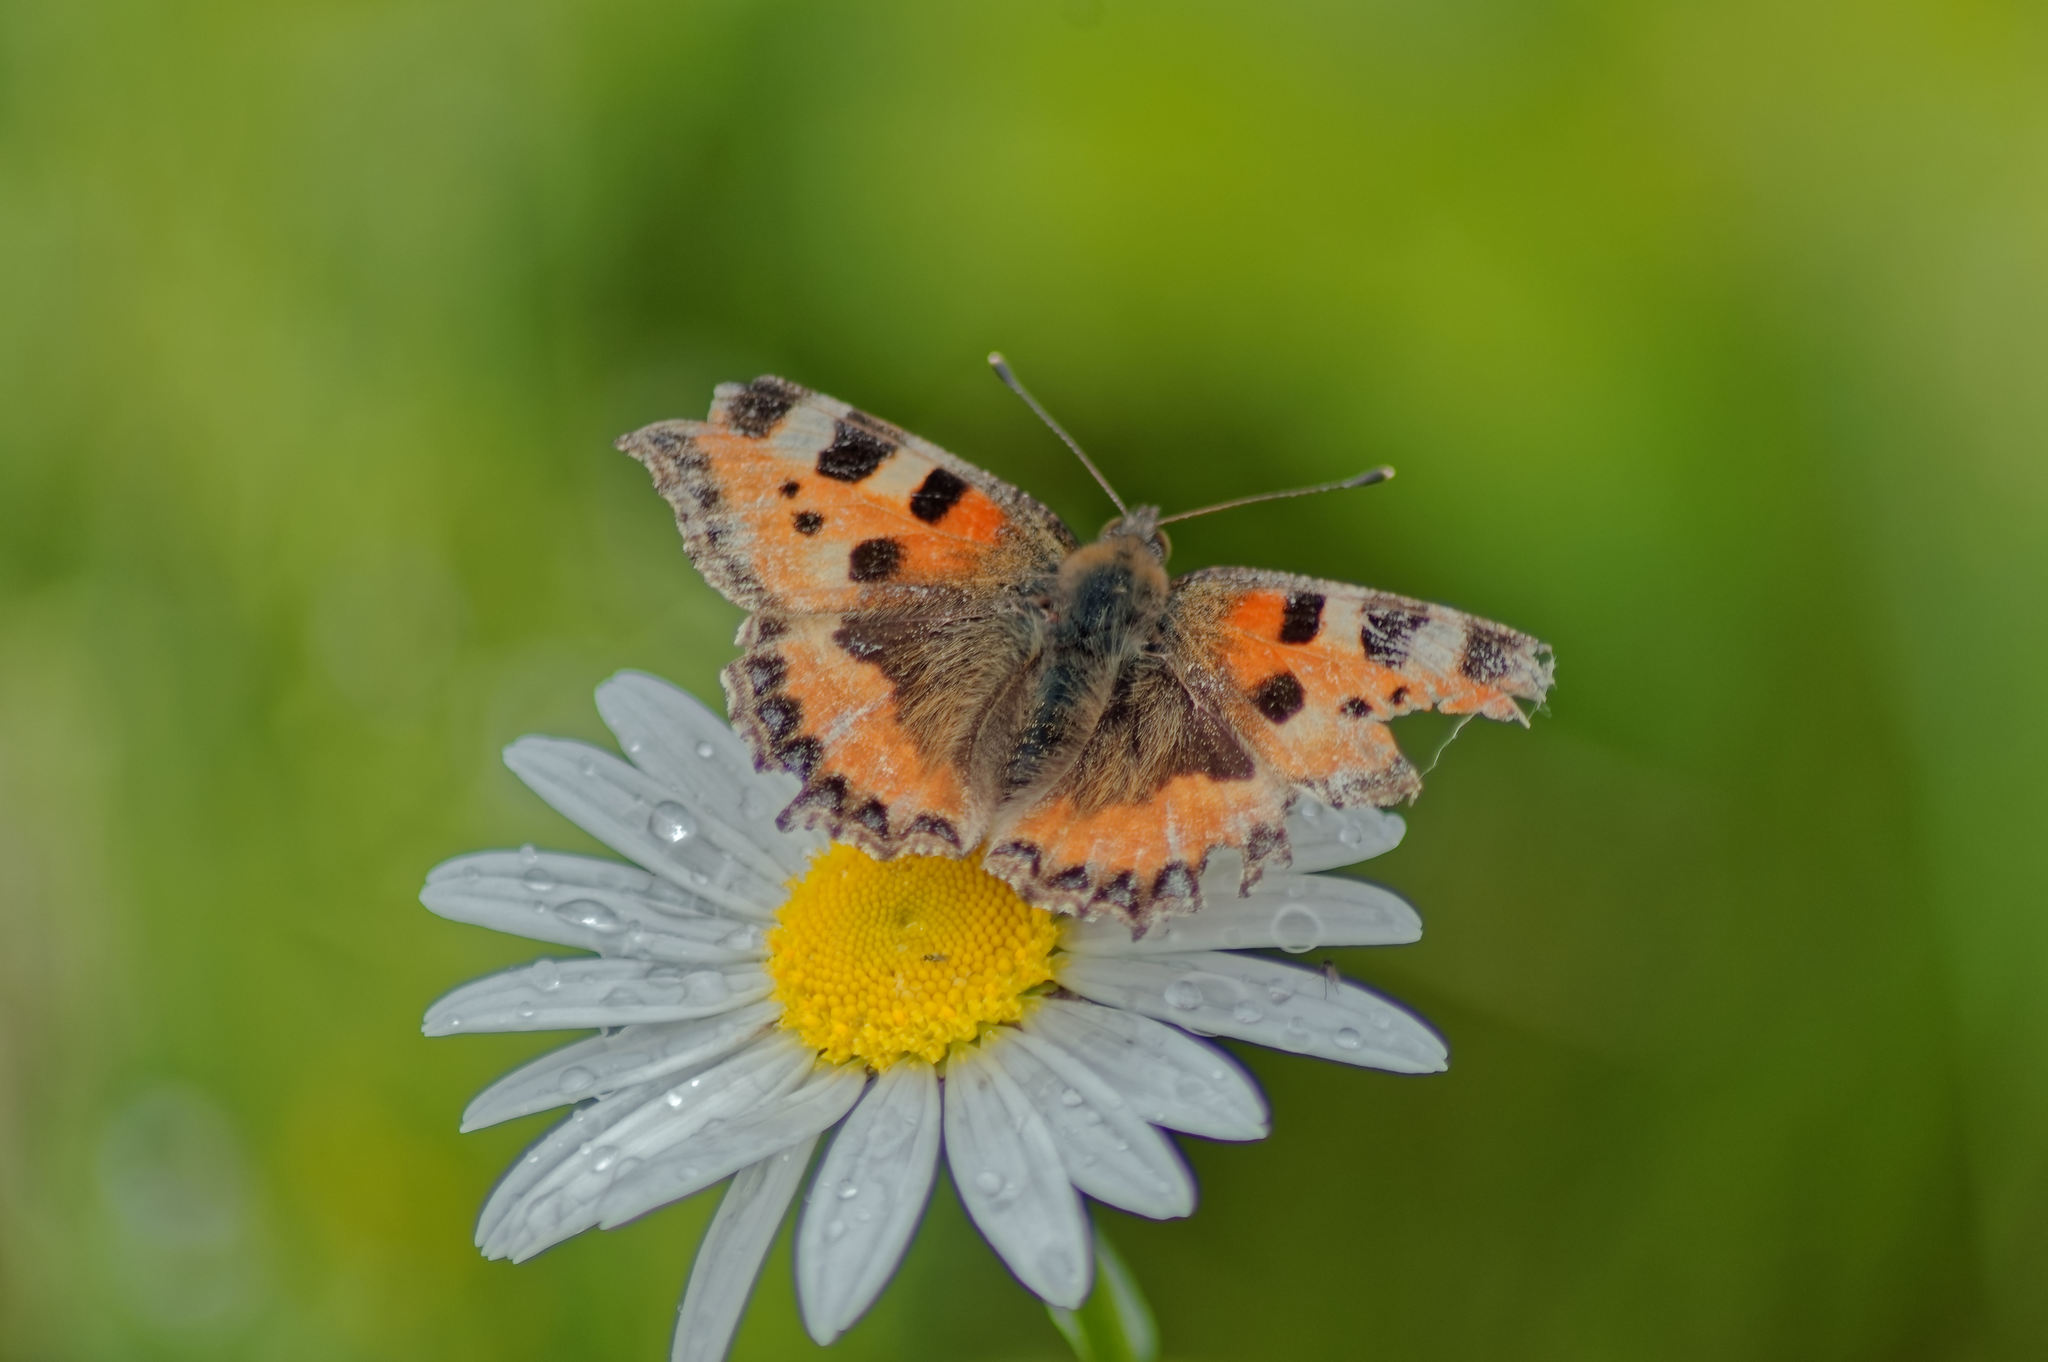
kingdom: Animalia
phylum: Arthropoda
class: Insecta
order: Lepidoptera
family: Nymphalidae
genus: Aglais
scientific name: Aglais urticae
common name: Small tortoiseshell
